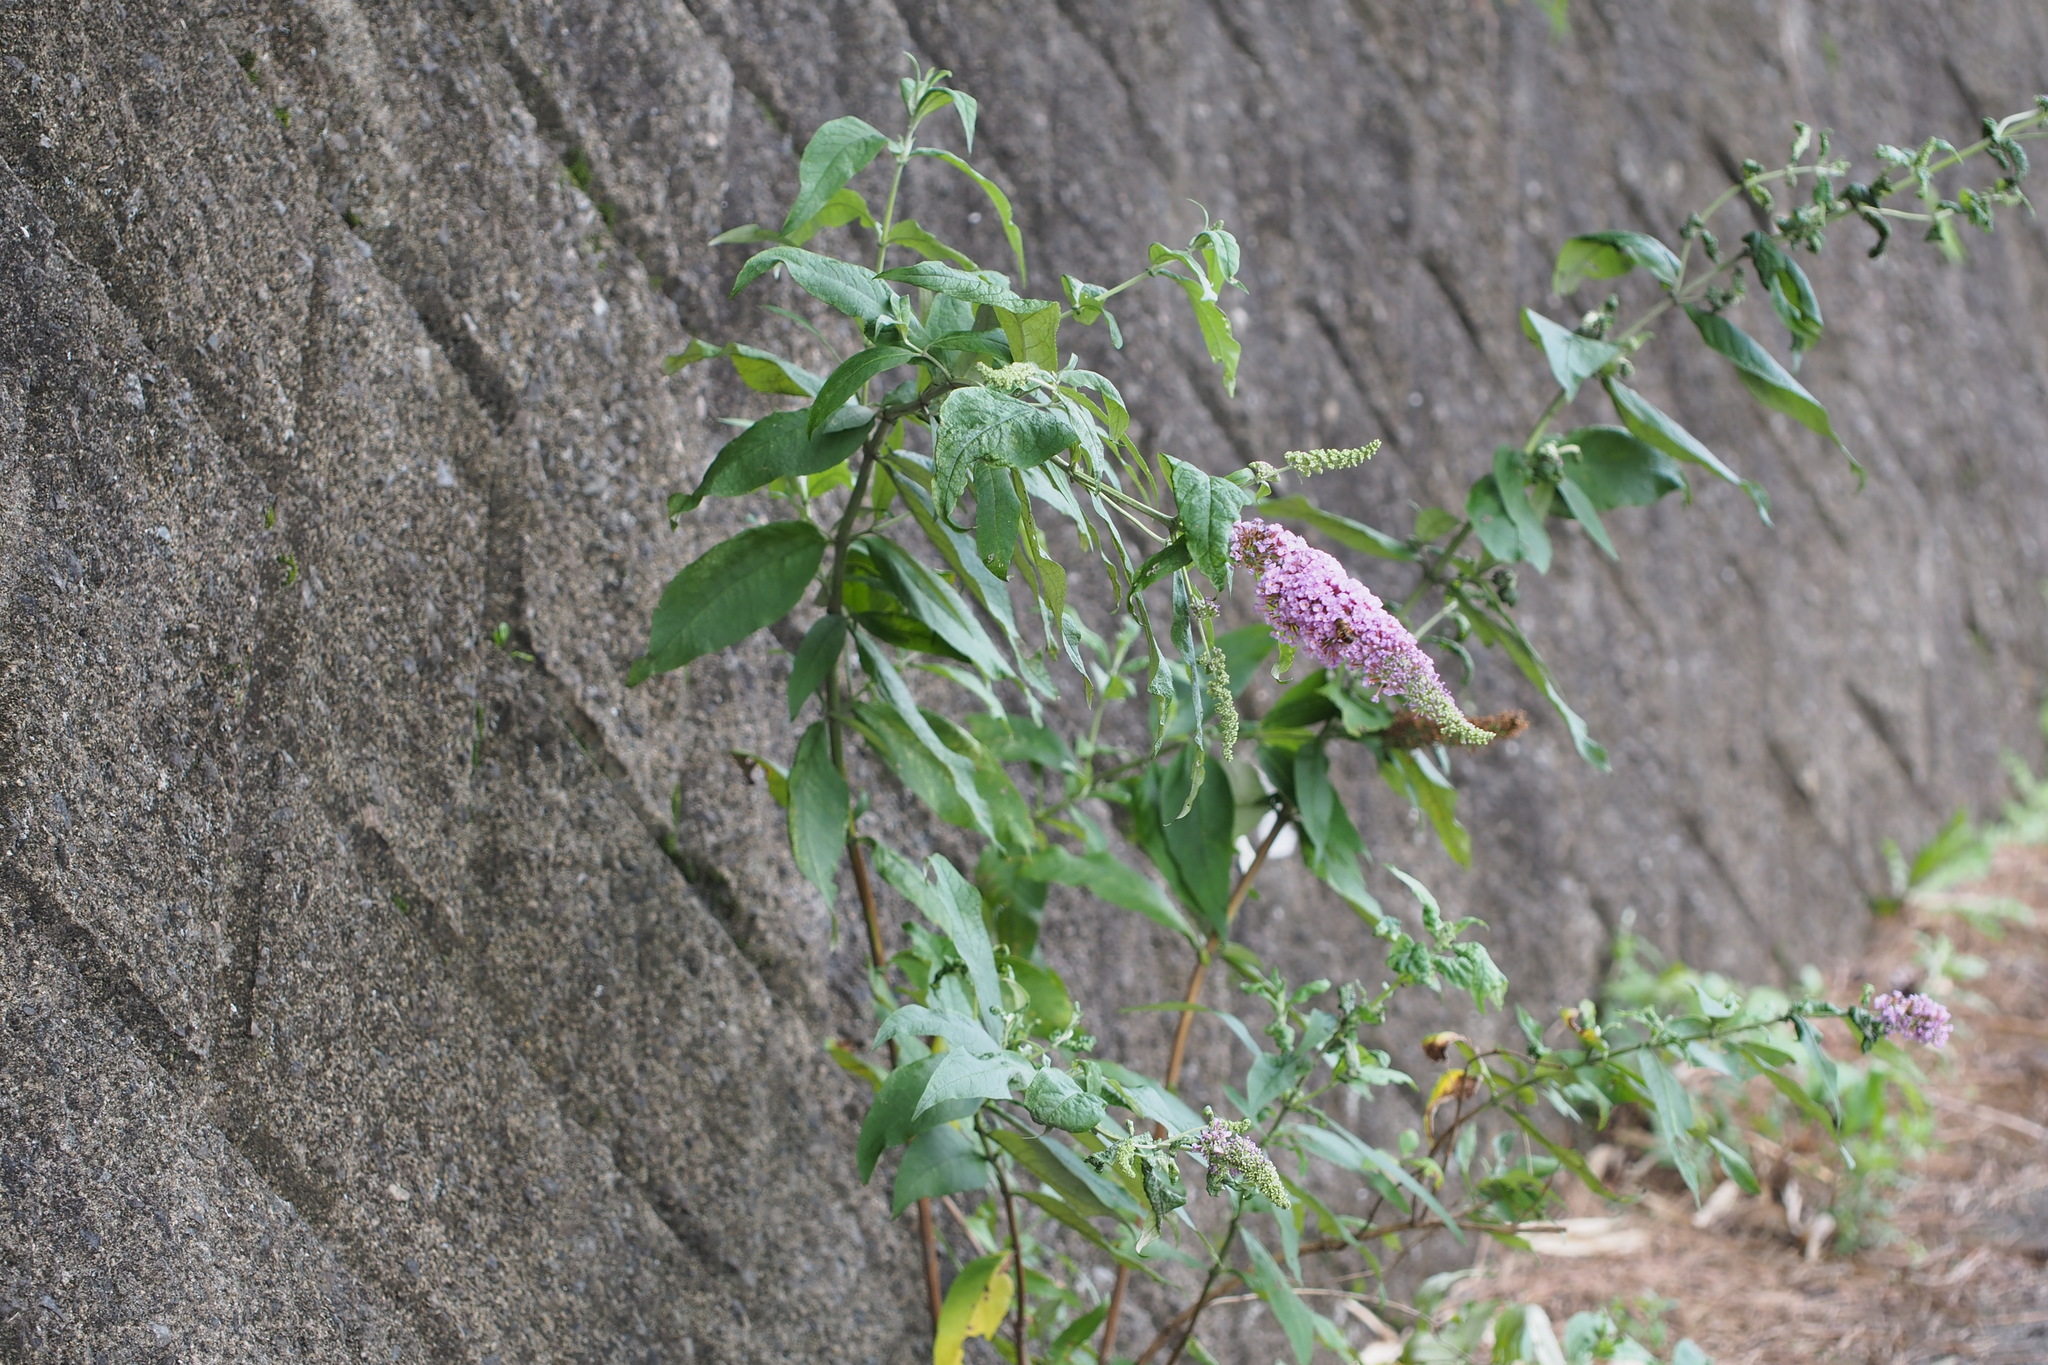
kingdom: Plantae
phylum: Tracheophyta
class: Magnoliopsida
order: Lamiales
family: Scrophulariaceae
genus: Buddleja
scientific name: Buddleja davidii
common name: Butterfly-bush
